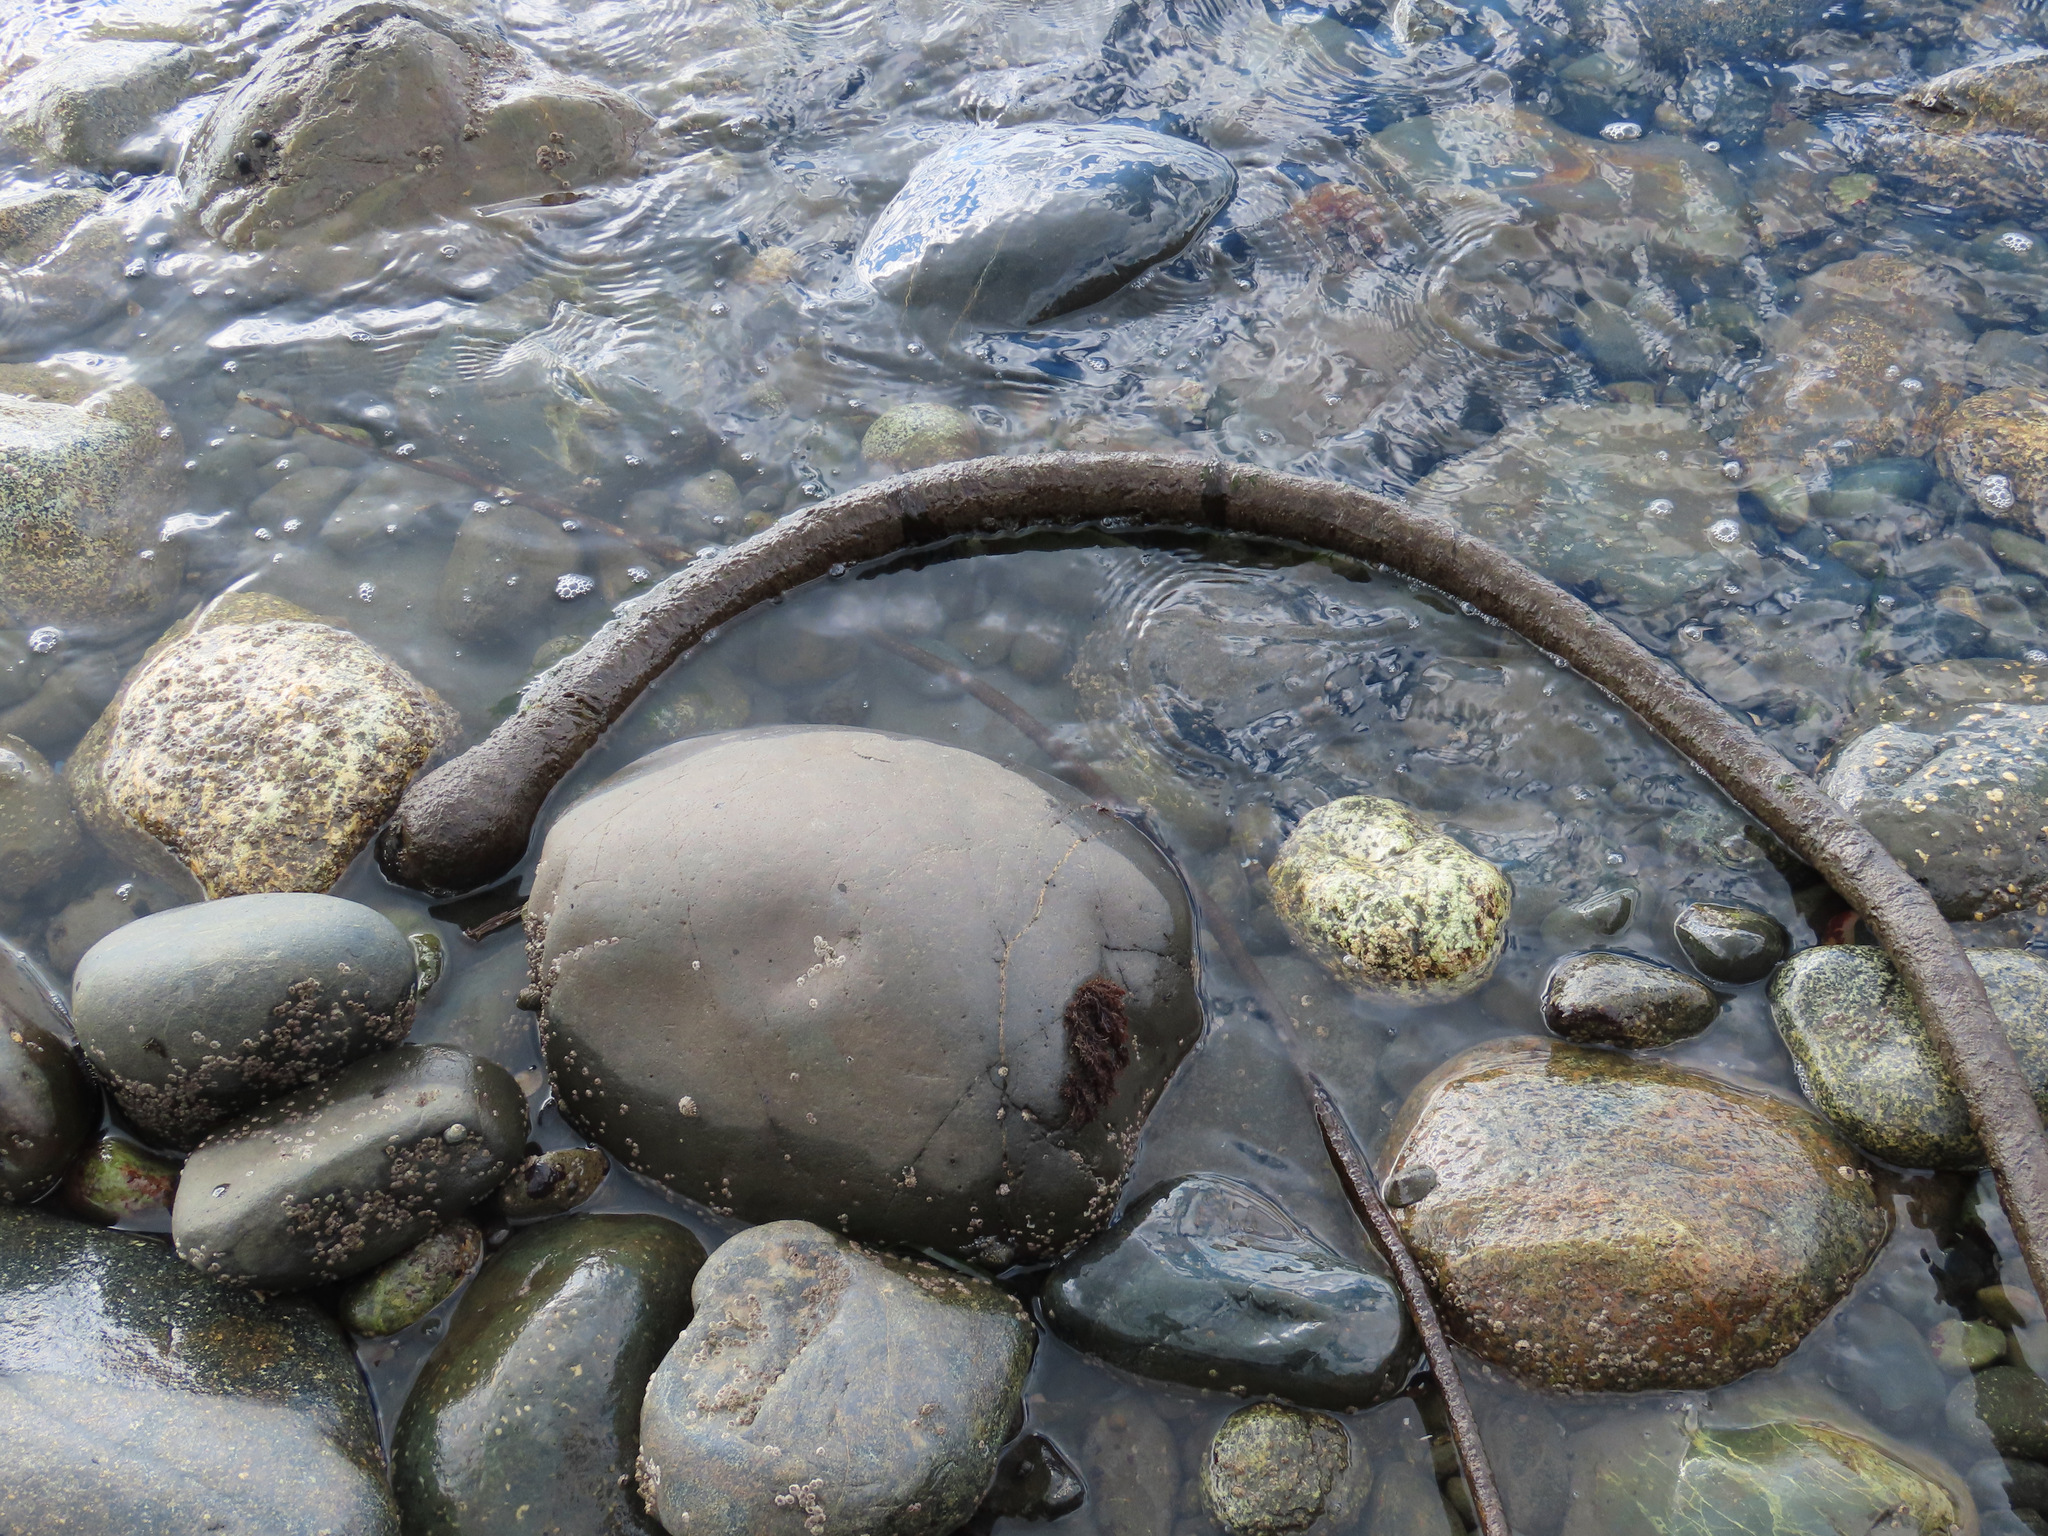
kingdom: Chromista
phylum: Ochrophyta
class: Phaeophyceae
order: Laminariales
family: Laminariaceae
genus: Nereocystis
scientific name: Nereocystis luetkeana
